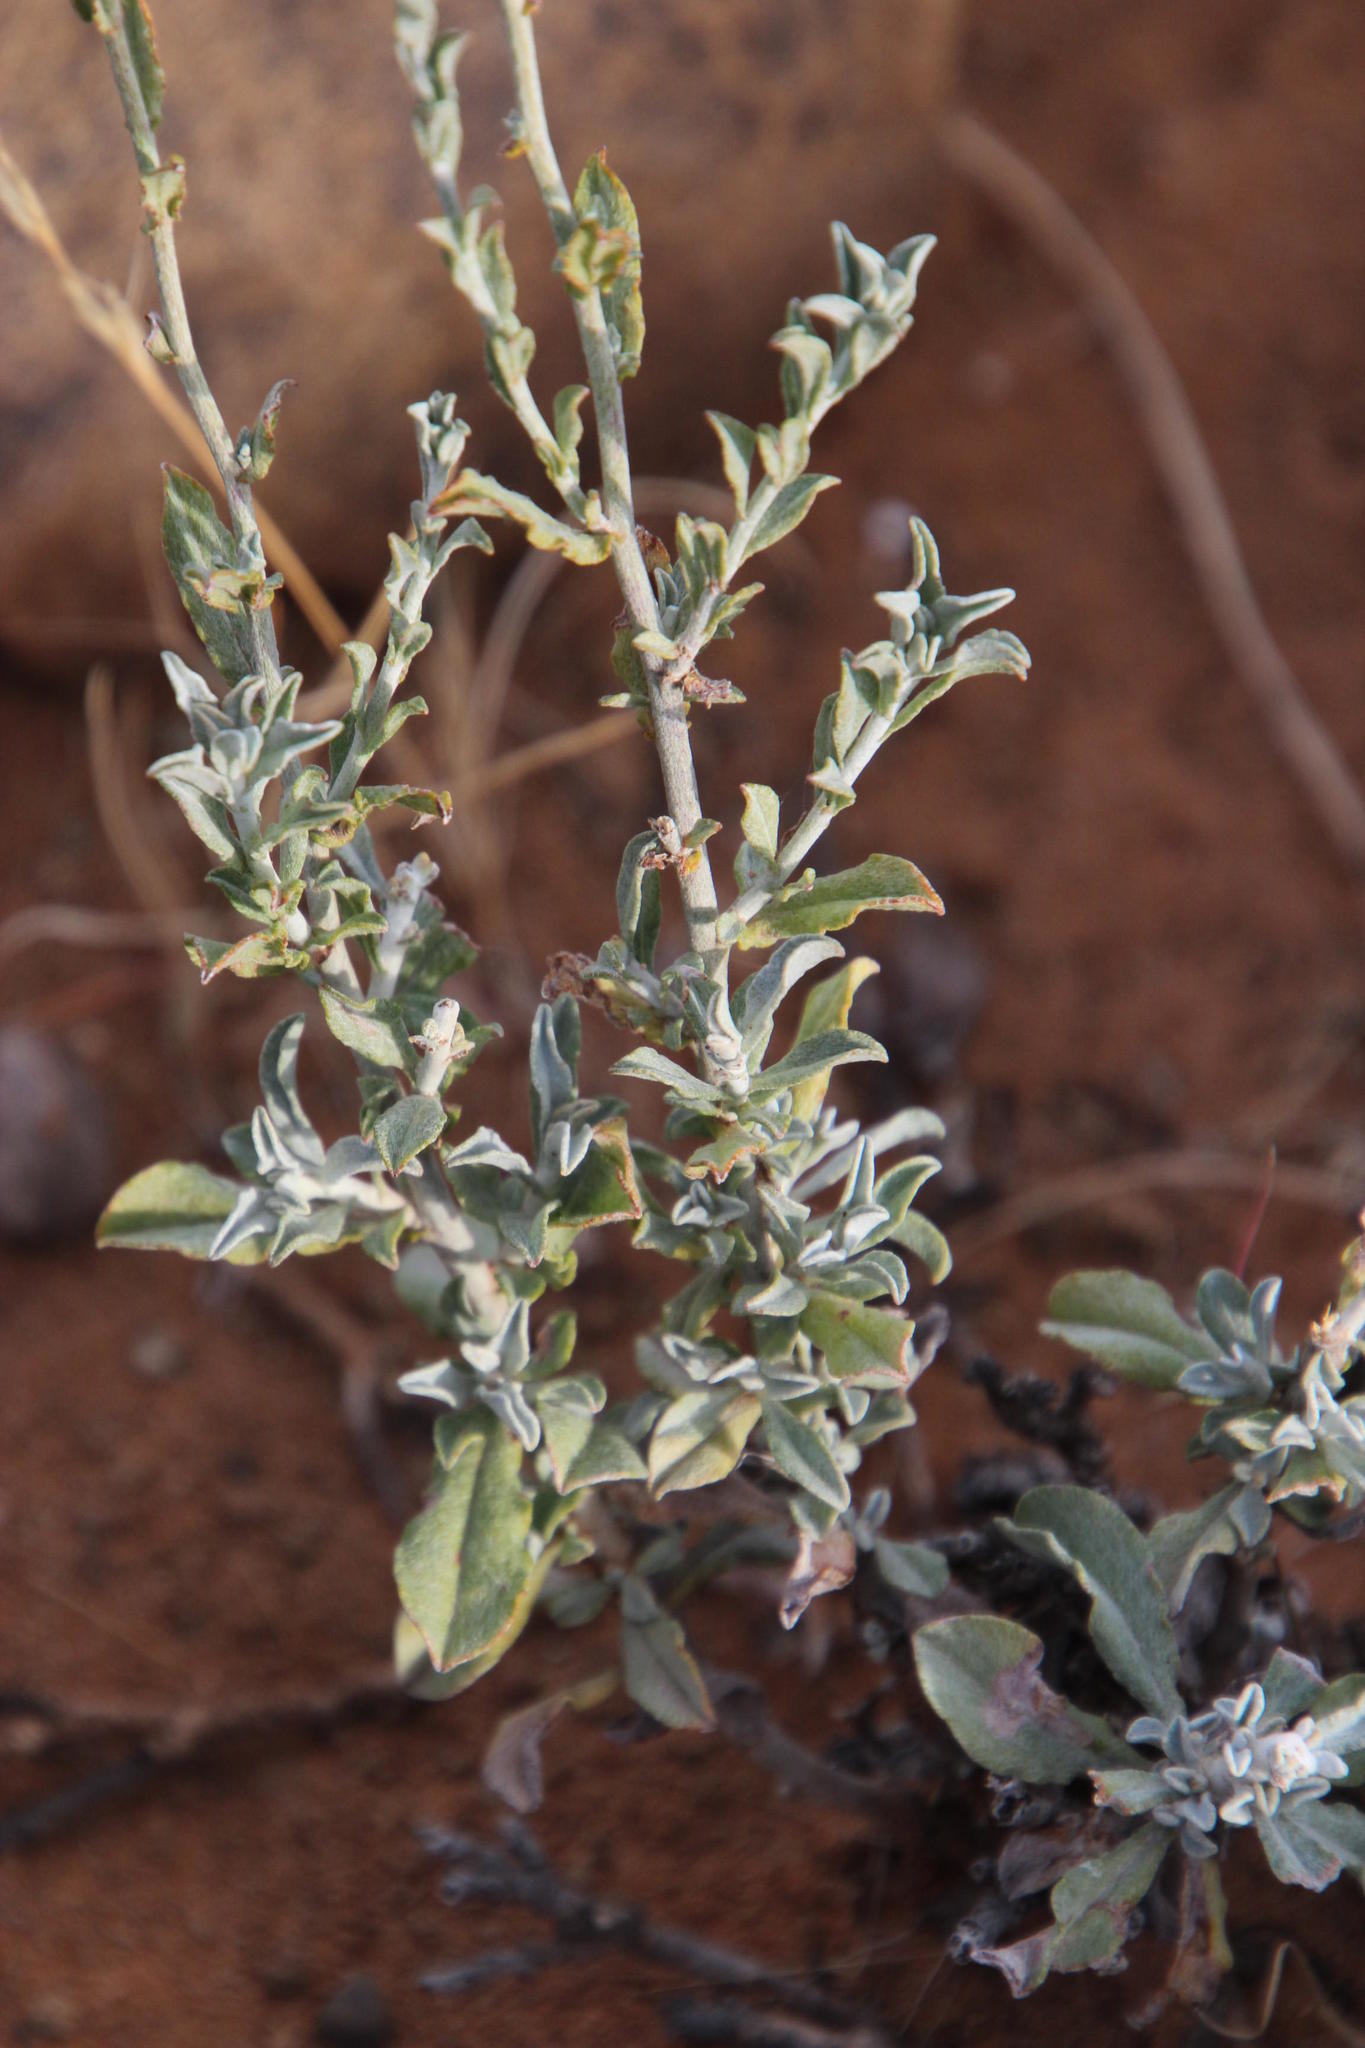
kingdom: Plantae
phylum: Tracheophyta
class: Magnoliopsida
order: Asterales
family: Asteraceae
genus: Helichrysum
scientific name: Helichrysum zeyheri
